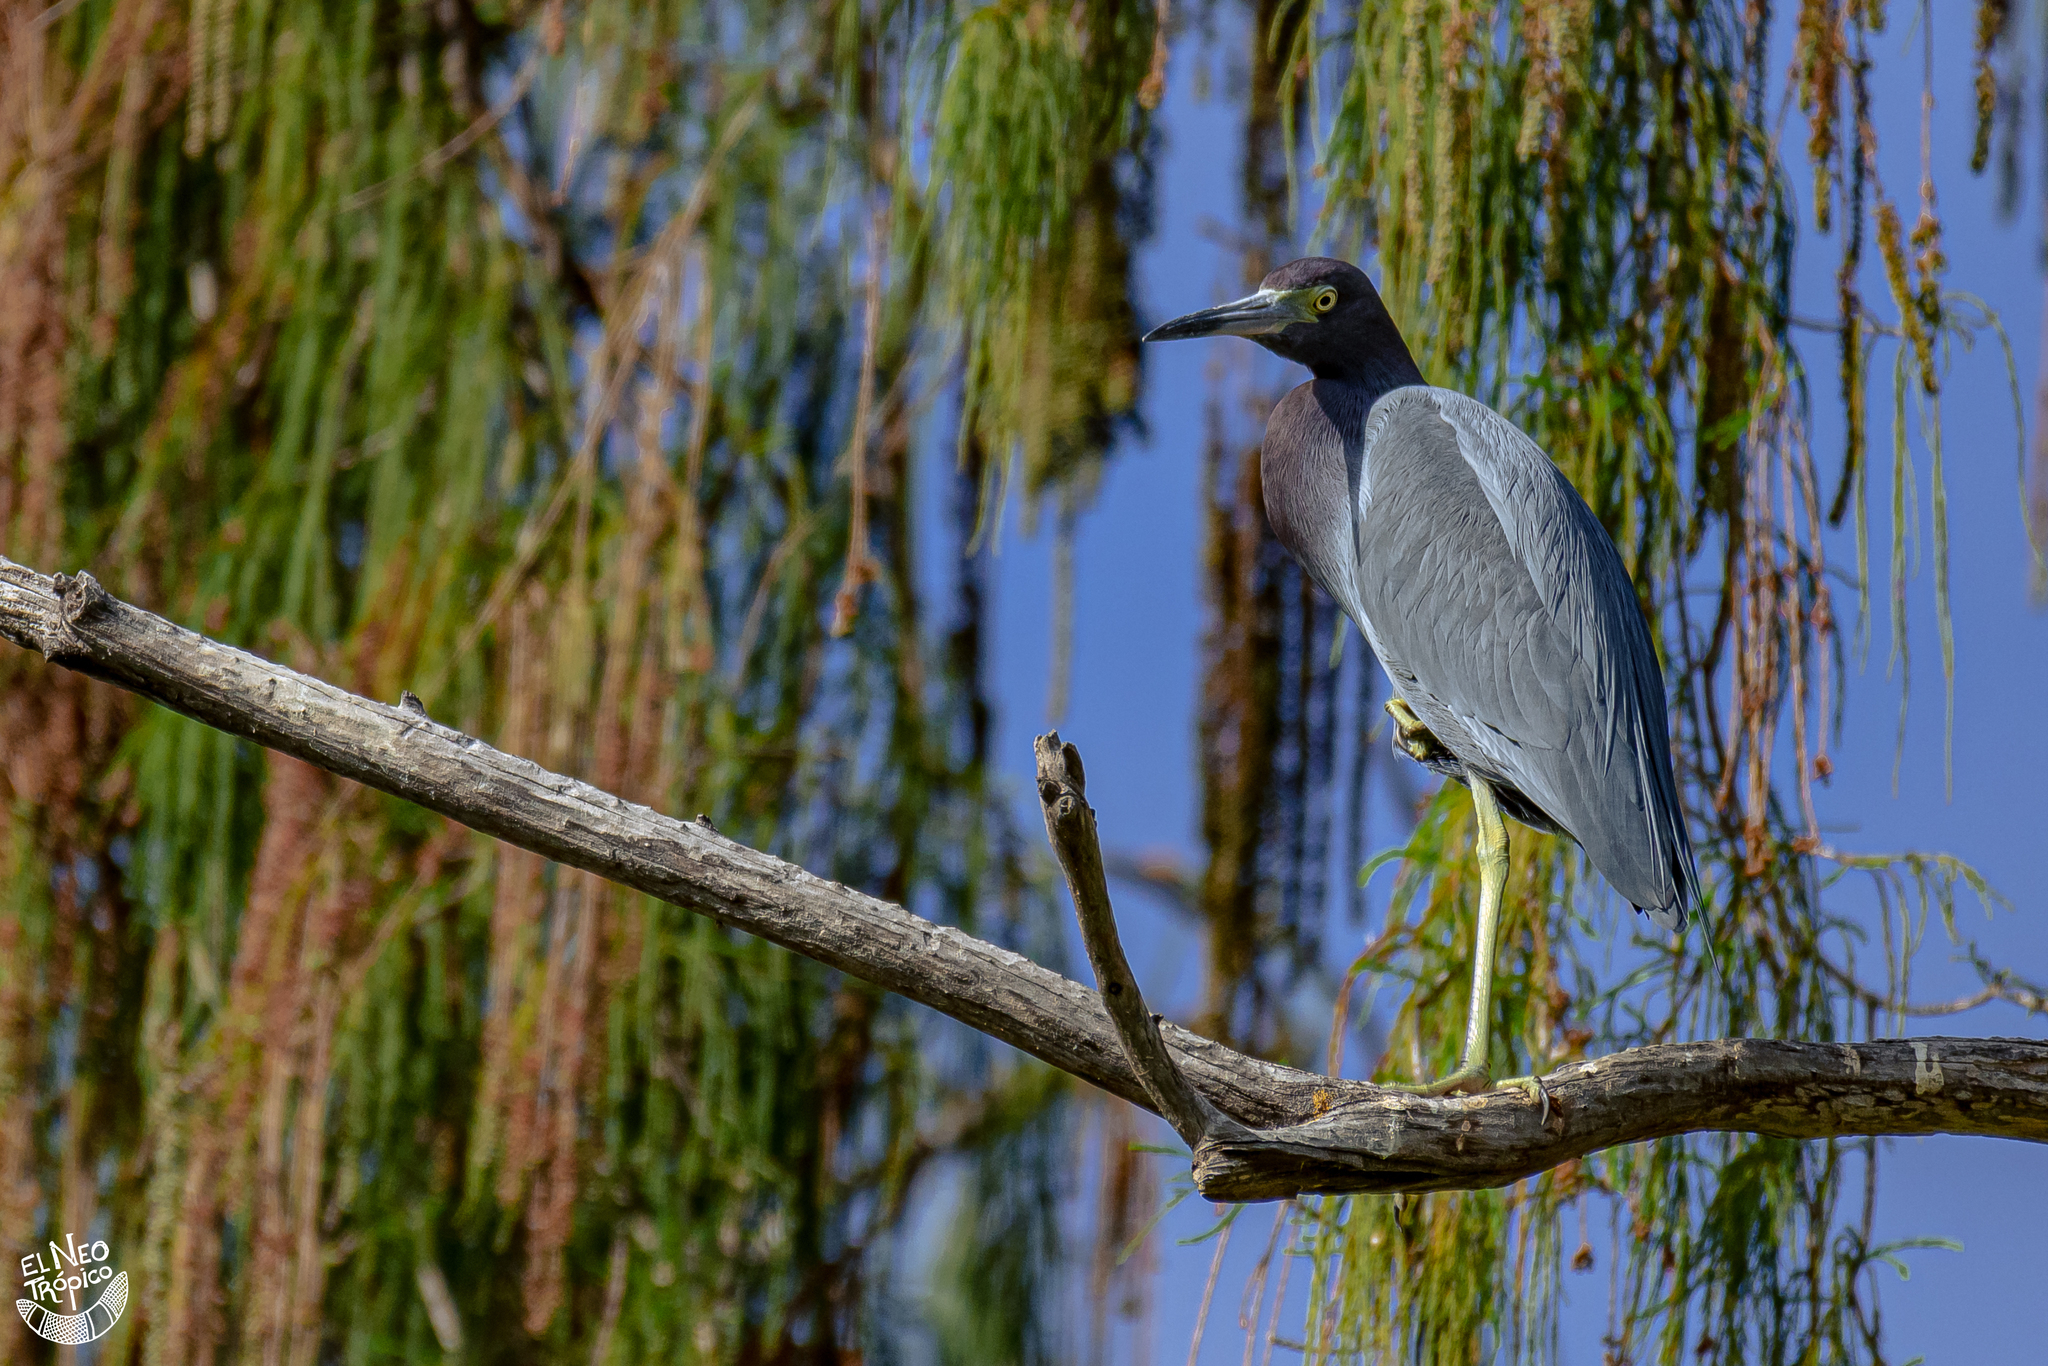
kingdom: Animalia
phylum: Chordata
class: Aves
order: Pelecaniformes
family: Ardeidae
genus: Egretta
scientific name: Egretta caerulea
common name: Little blue heron
